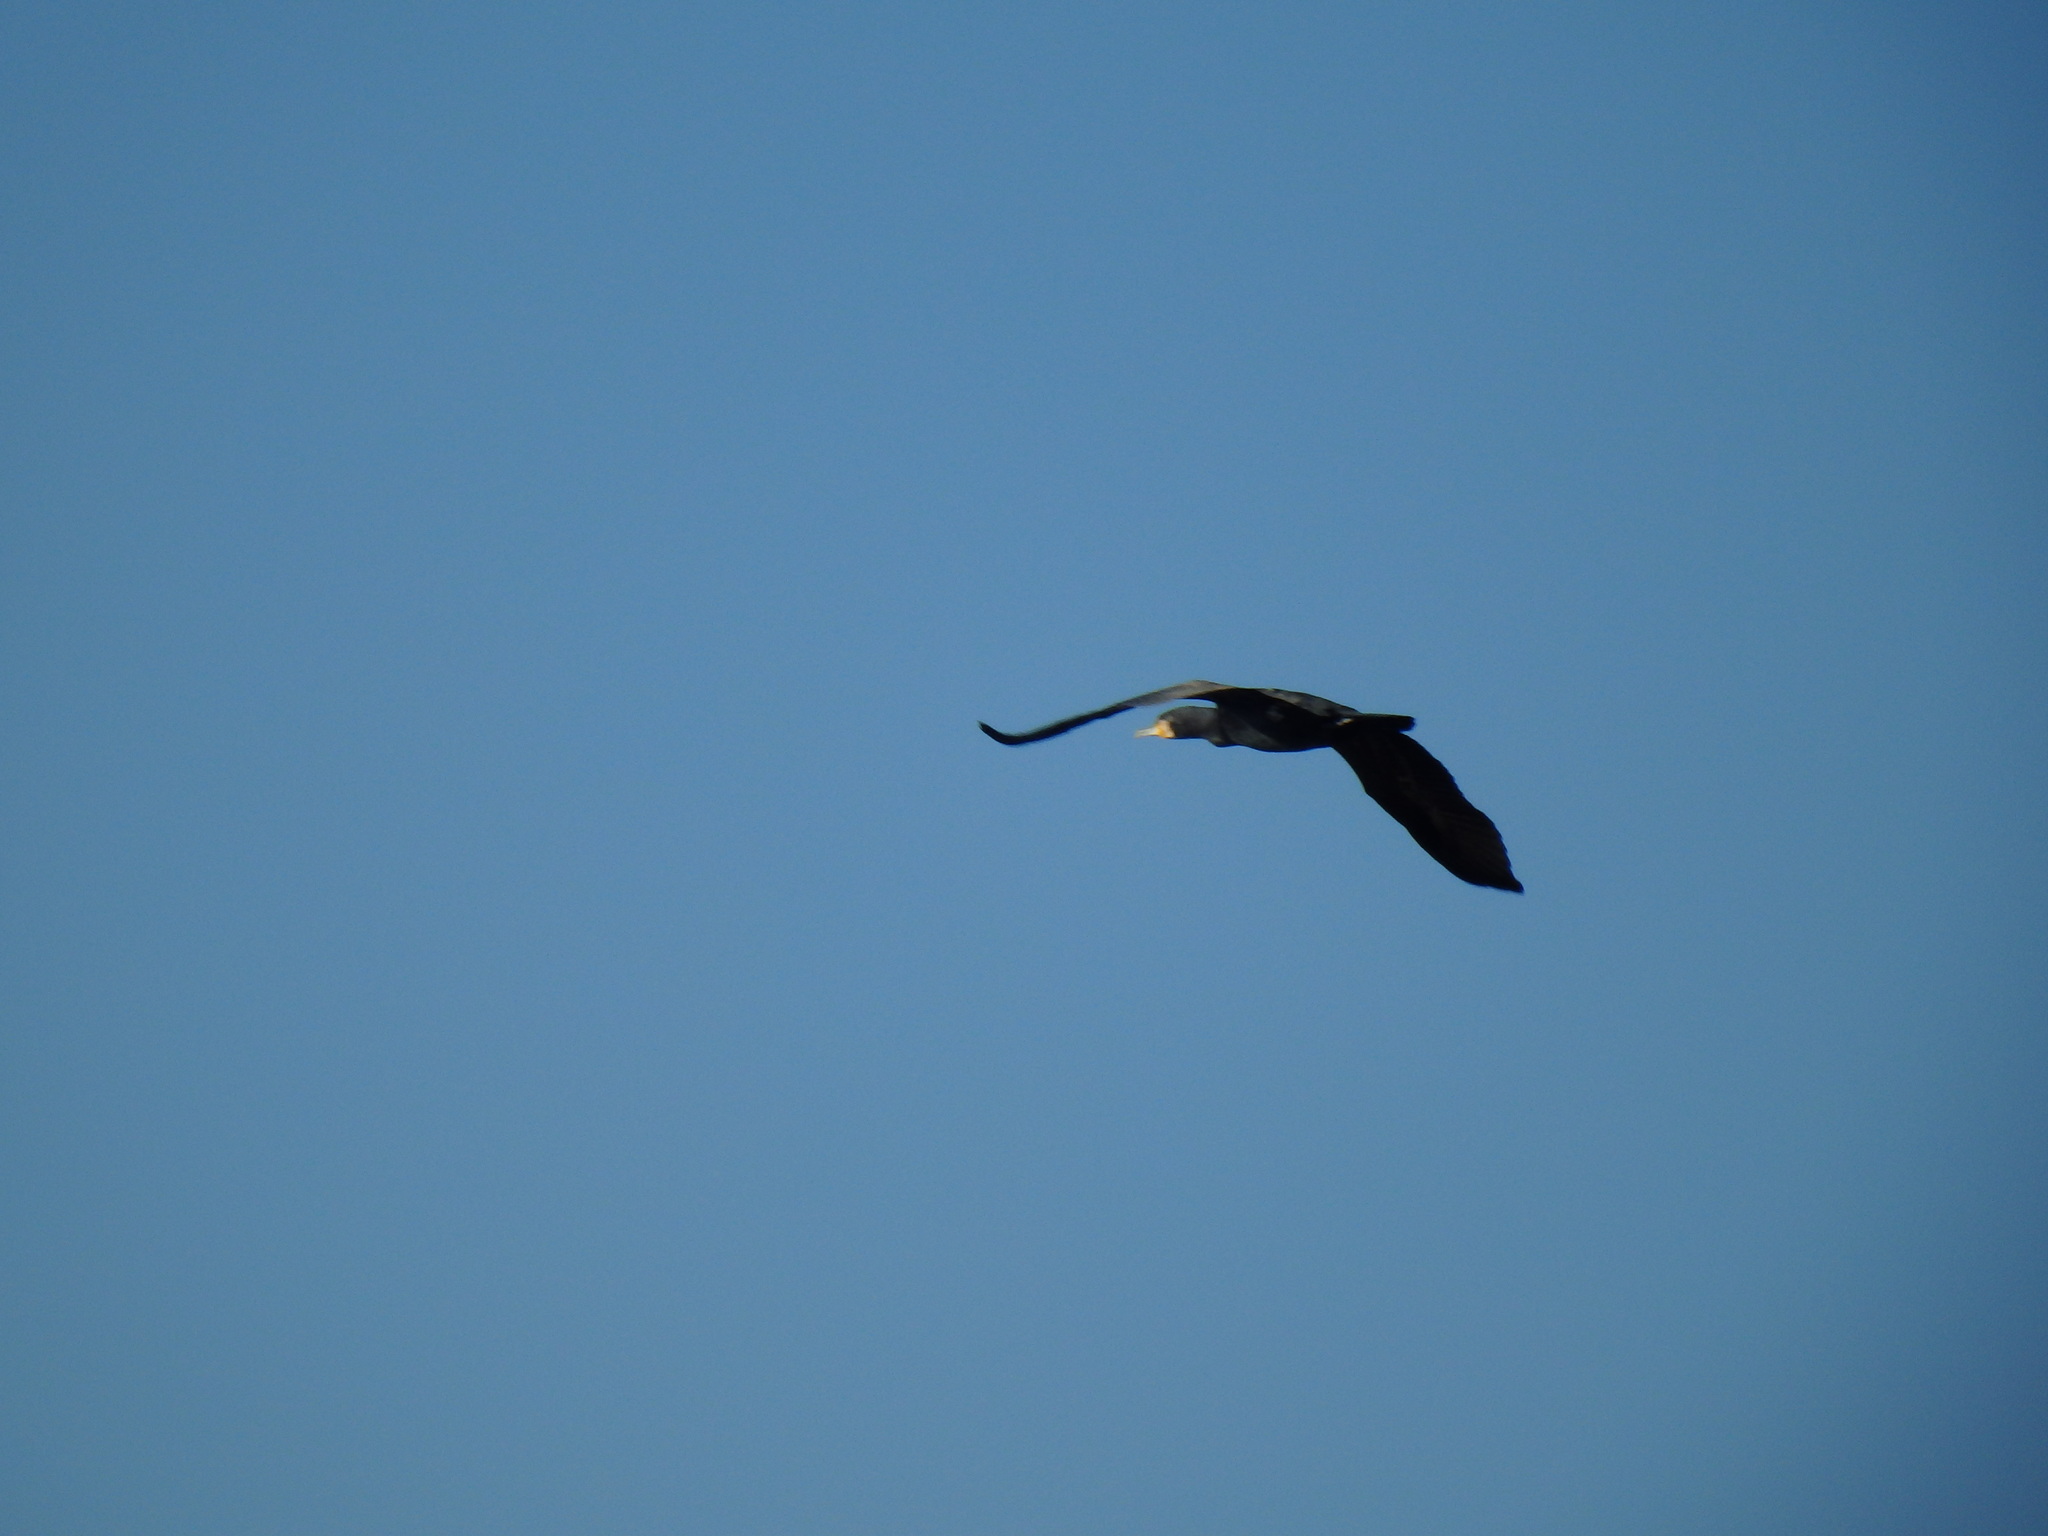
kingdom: Animalia
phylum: Chordata
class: Aves
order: Suliformes
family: Phalacrocoracidae
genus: Phalacrocorax
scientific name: Phalacrocorax carbo
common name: Great cormorant
